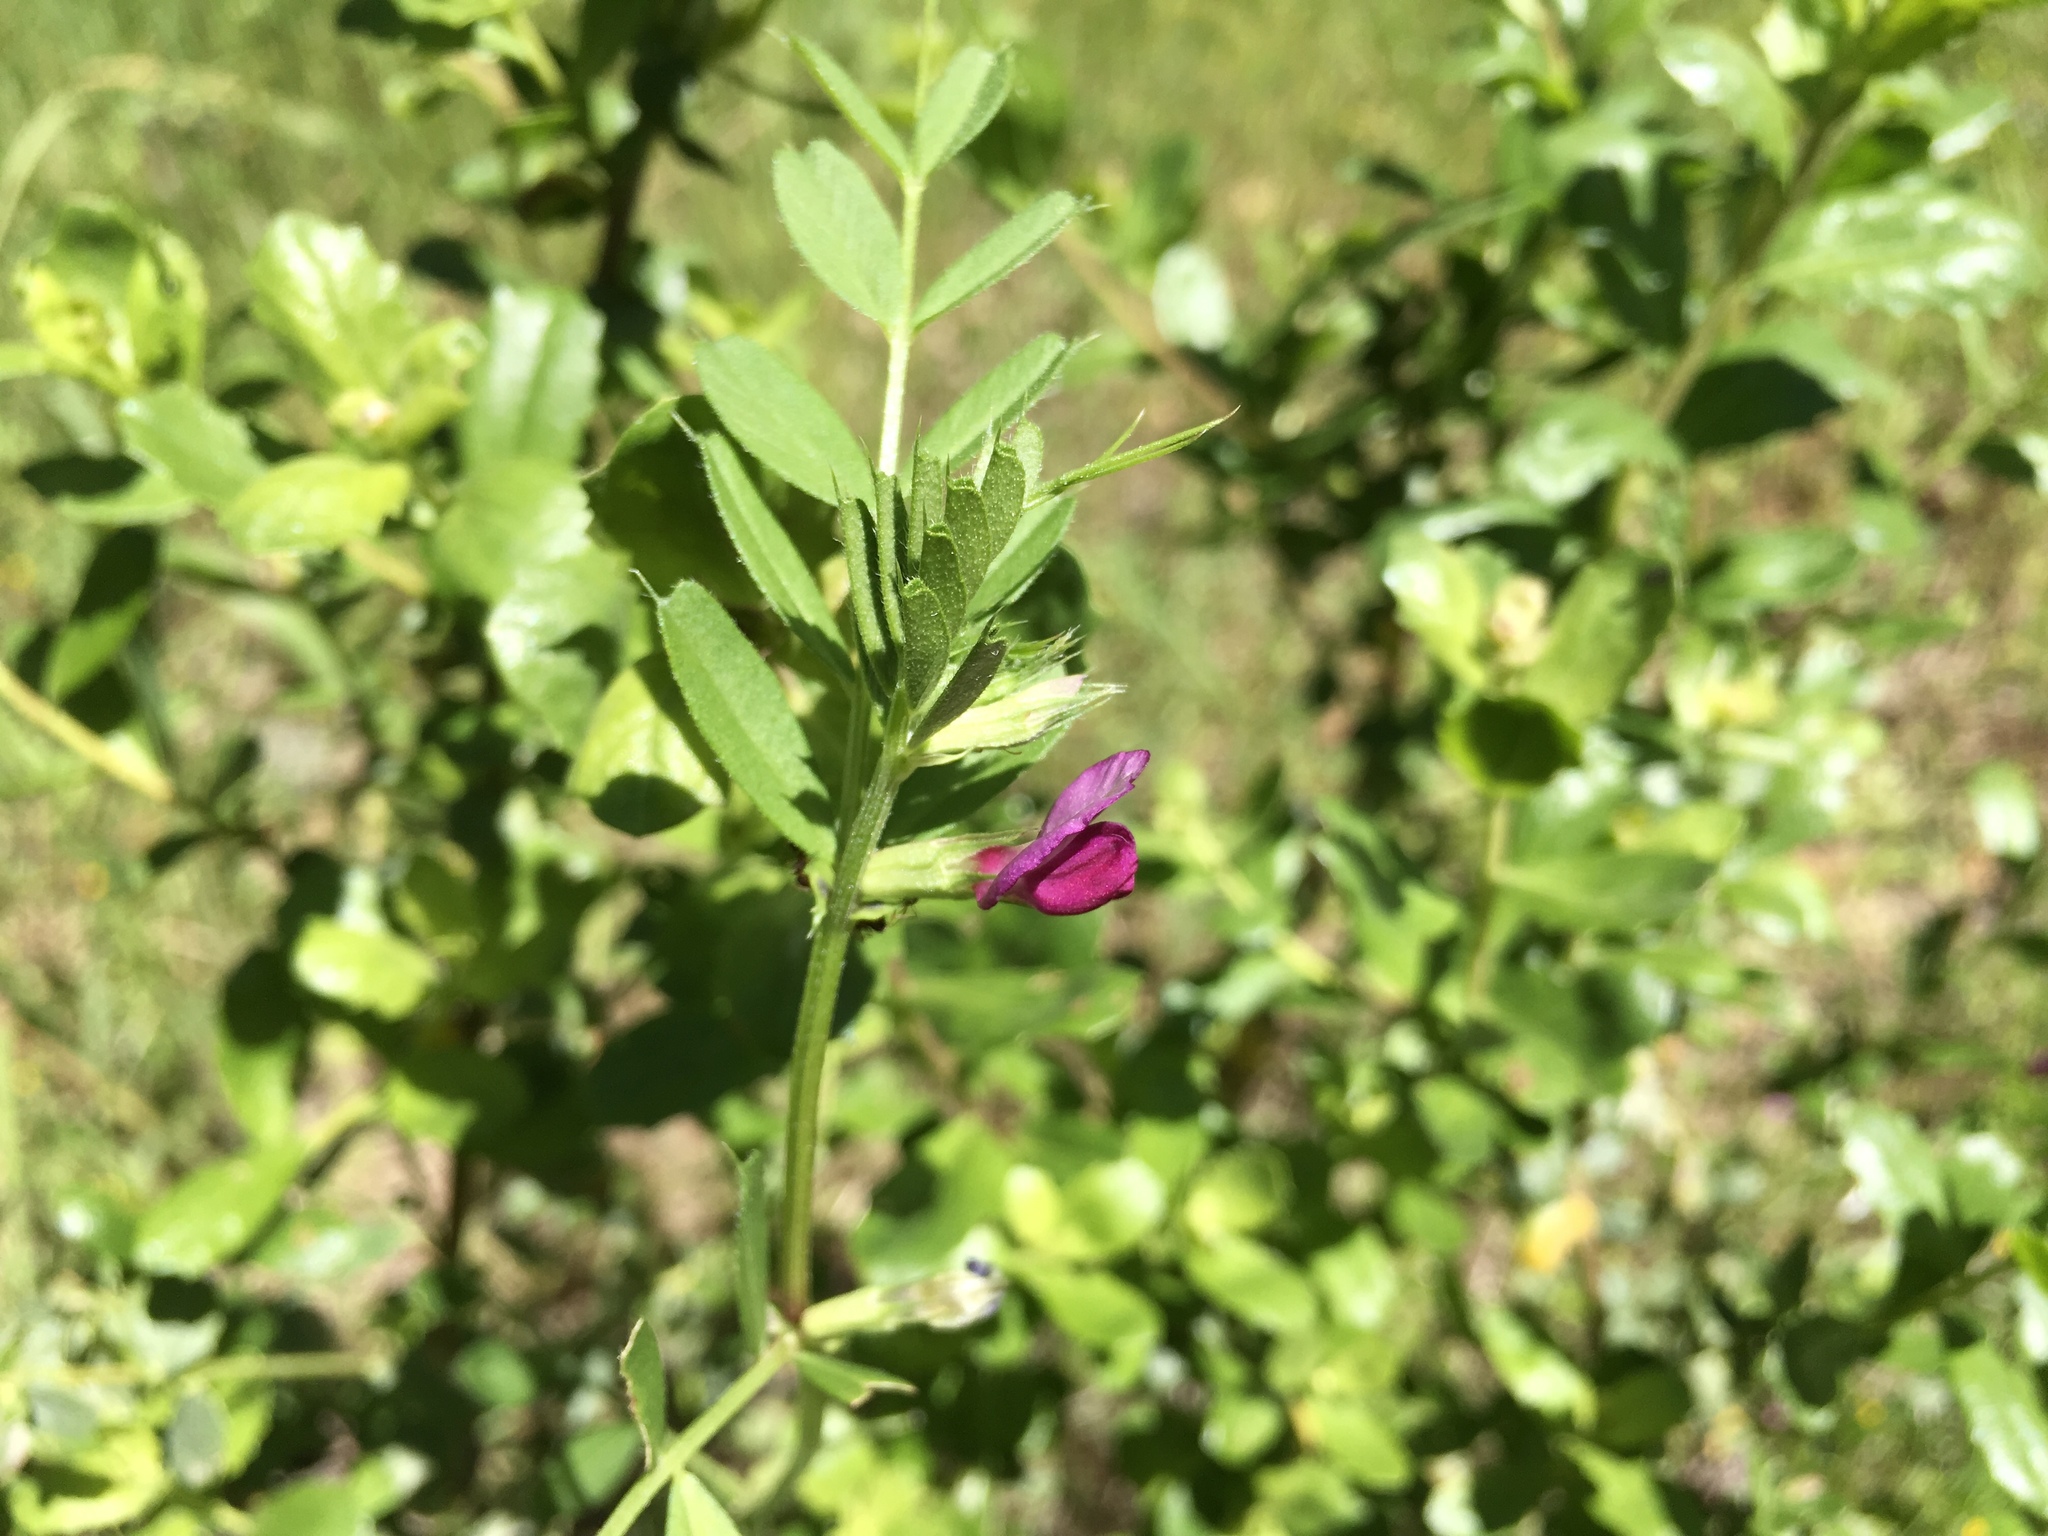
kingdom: Plantae
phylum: Tracheophyta
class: Magnoliopsida
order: Fabales
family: Fabaceae
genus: Vicia
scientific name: Vicia sativa
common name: Garden vetch
